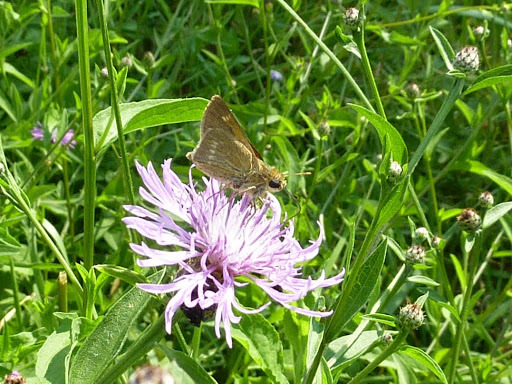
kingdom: Animalia
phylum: Arthropoda
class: Insecta
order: Lepidoptera
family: Hesperiidae
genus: Polites
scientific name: Polites origenes
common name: Crossline skipper
